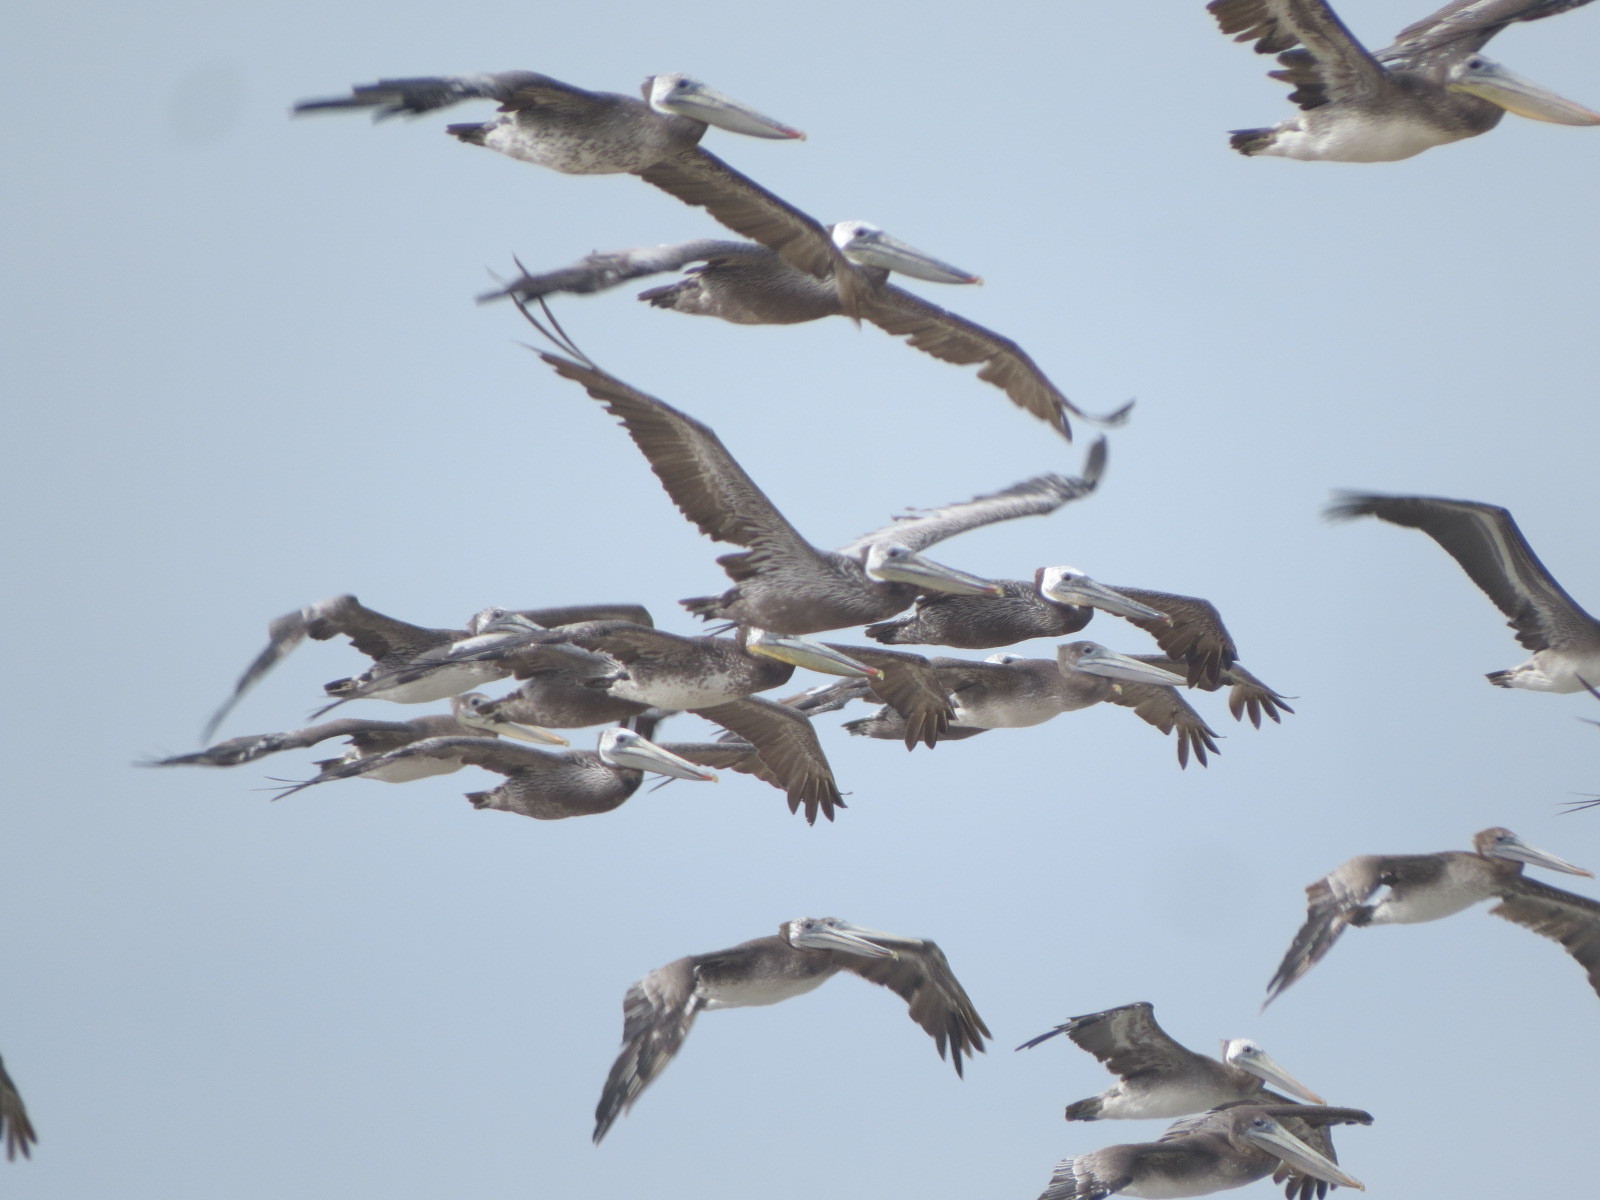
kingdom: Animalia
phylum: Chordata
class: Aves
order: Pelecaniformes
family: Pelecanidae
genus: Pelecanus
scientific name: Pelecanus occidentalis
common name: Brown pelican
